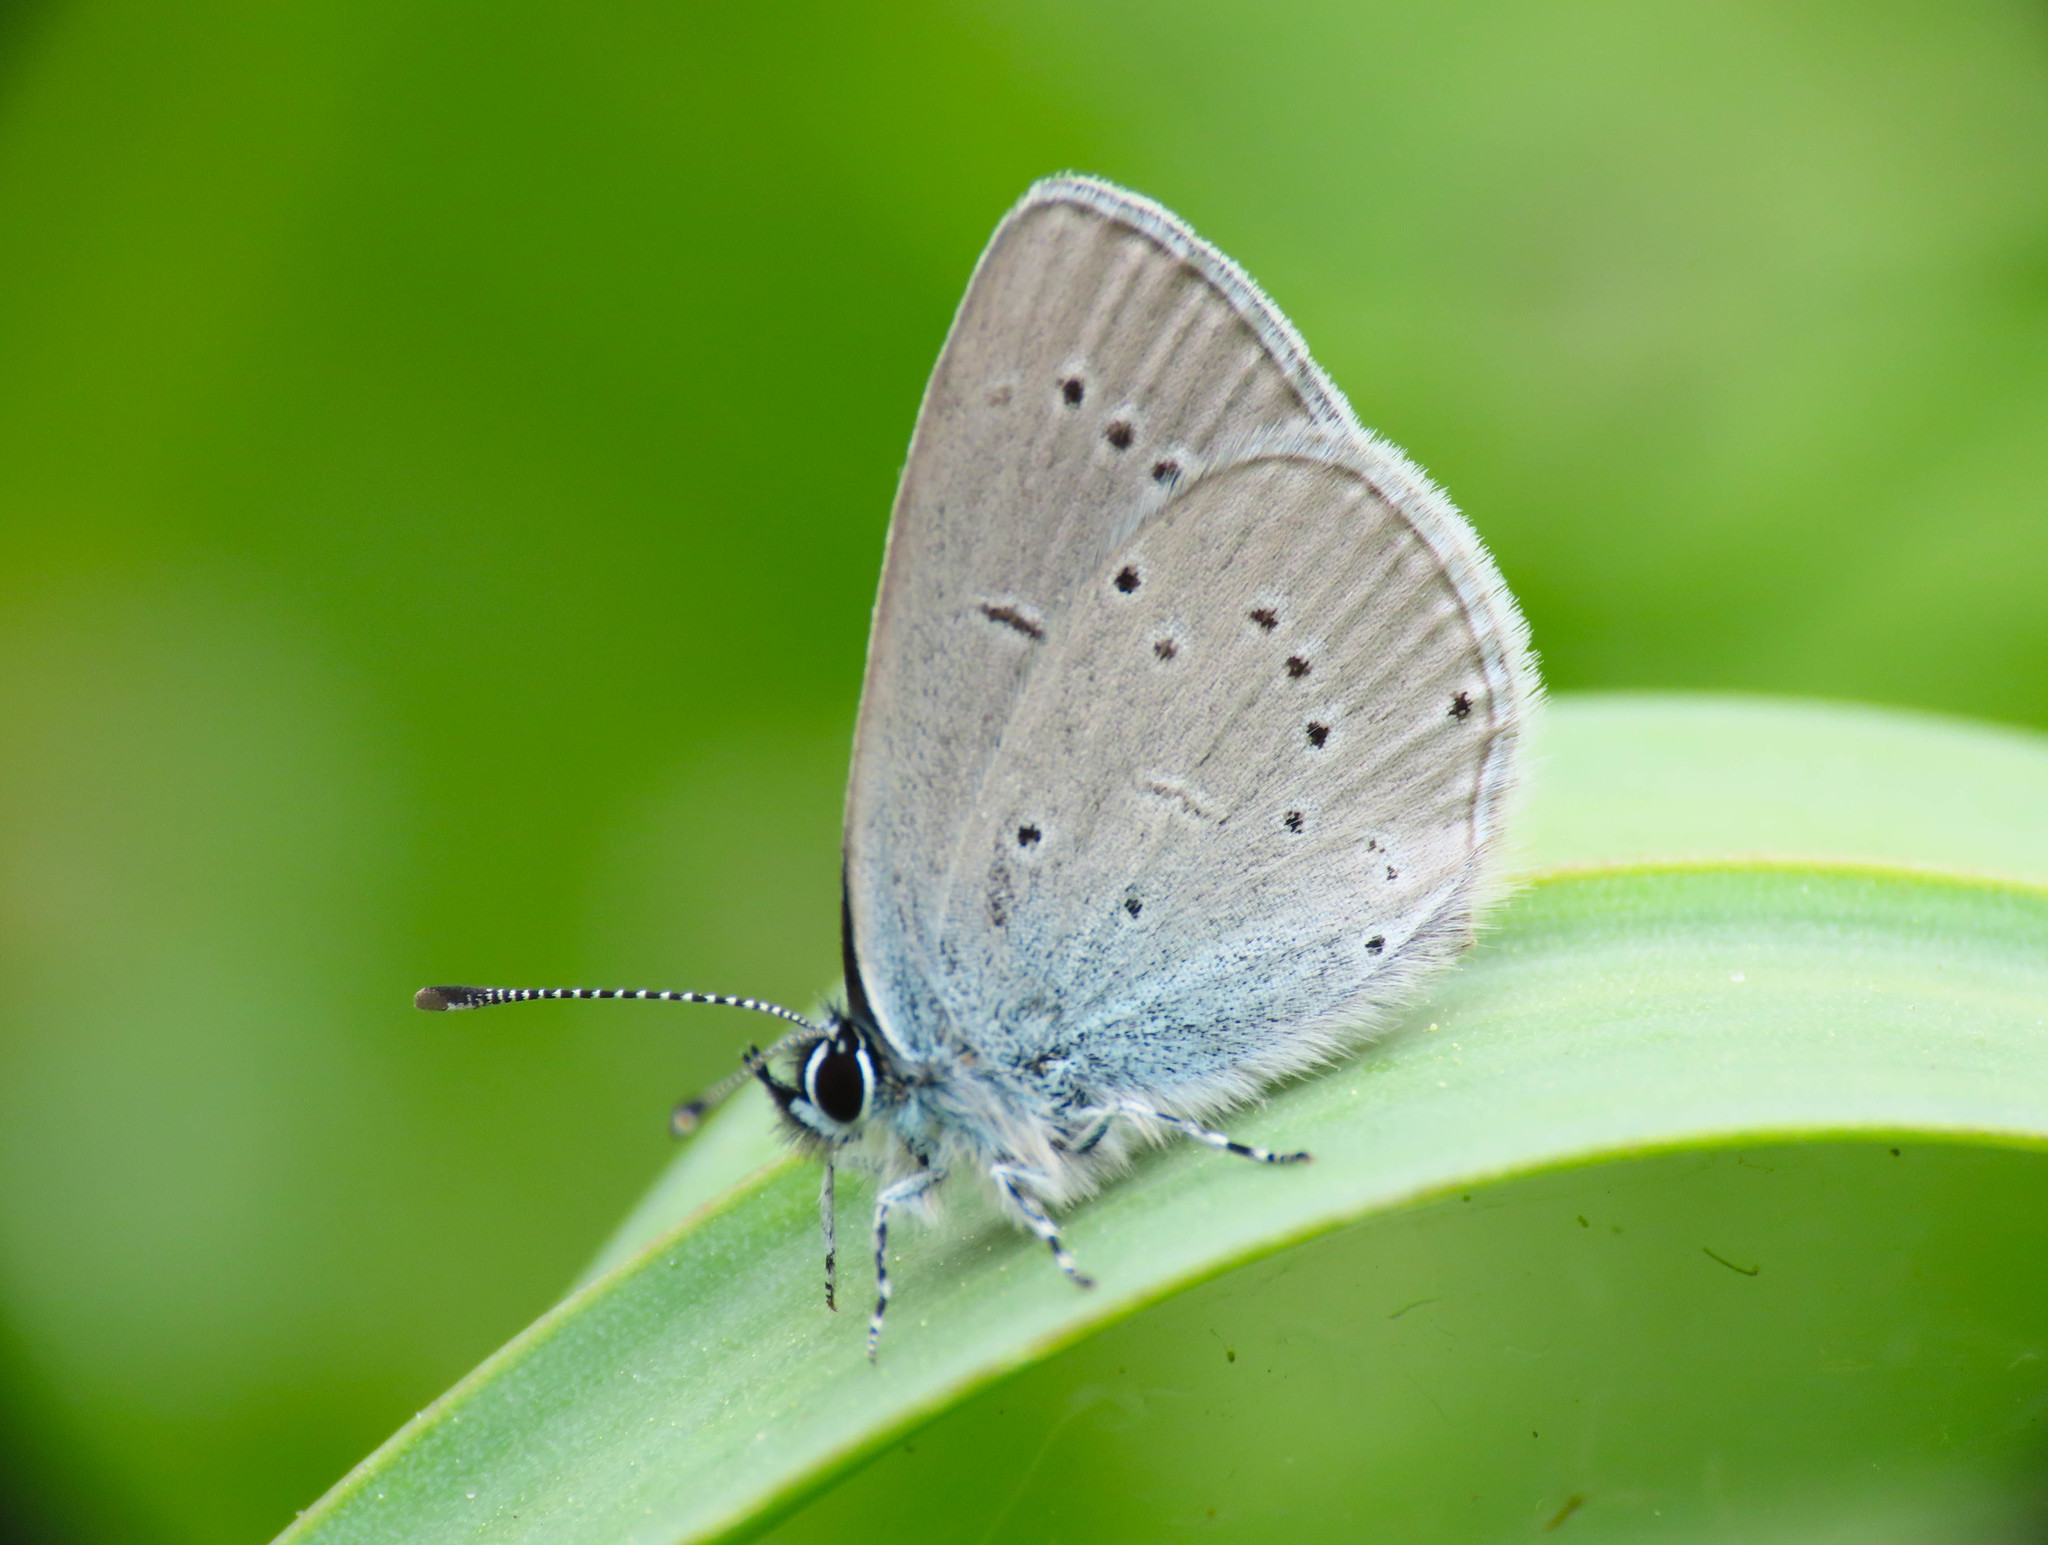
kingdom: Animalia
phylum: Arthropoda
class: Insecta
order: Lepidoptera
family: Lycaenidae
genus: Cupido
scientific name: Cupido minimus
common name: Small blue
